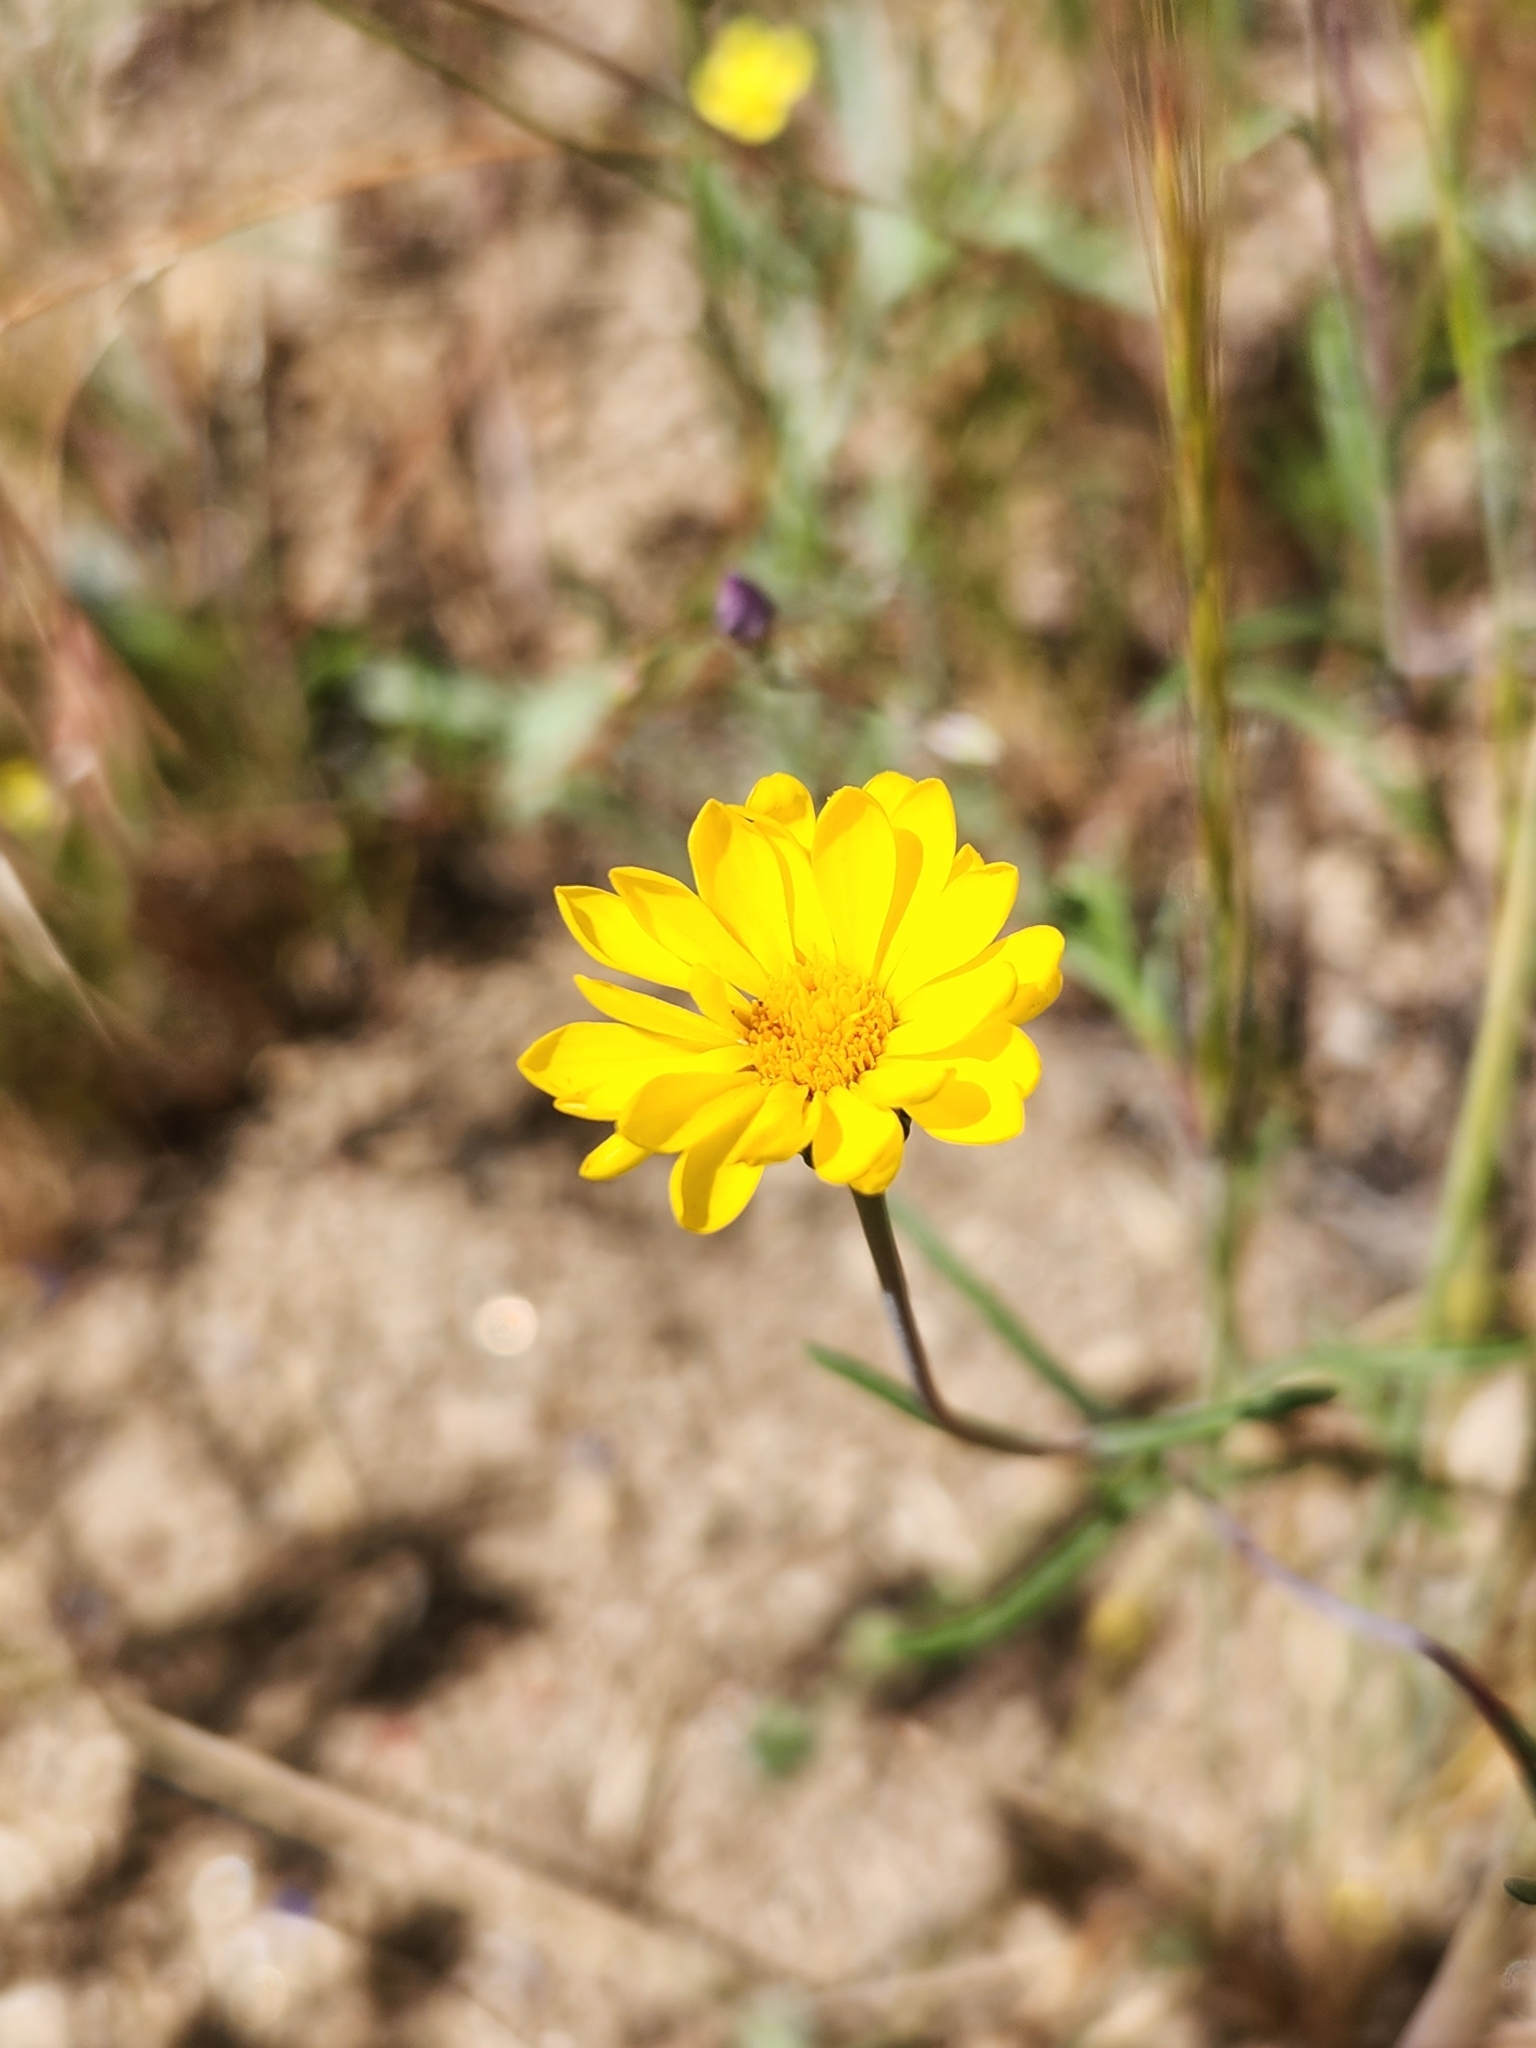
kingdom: Plantae
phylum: Tracheophyta
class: Magnoliopsida
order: Asterales
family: Asteraceae
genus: Pentachaeta
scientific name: Pentachaeta aurea
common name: Golden-ray pentachaeta
